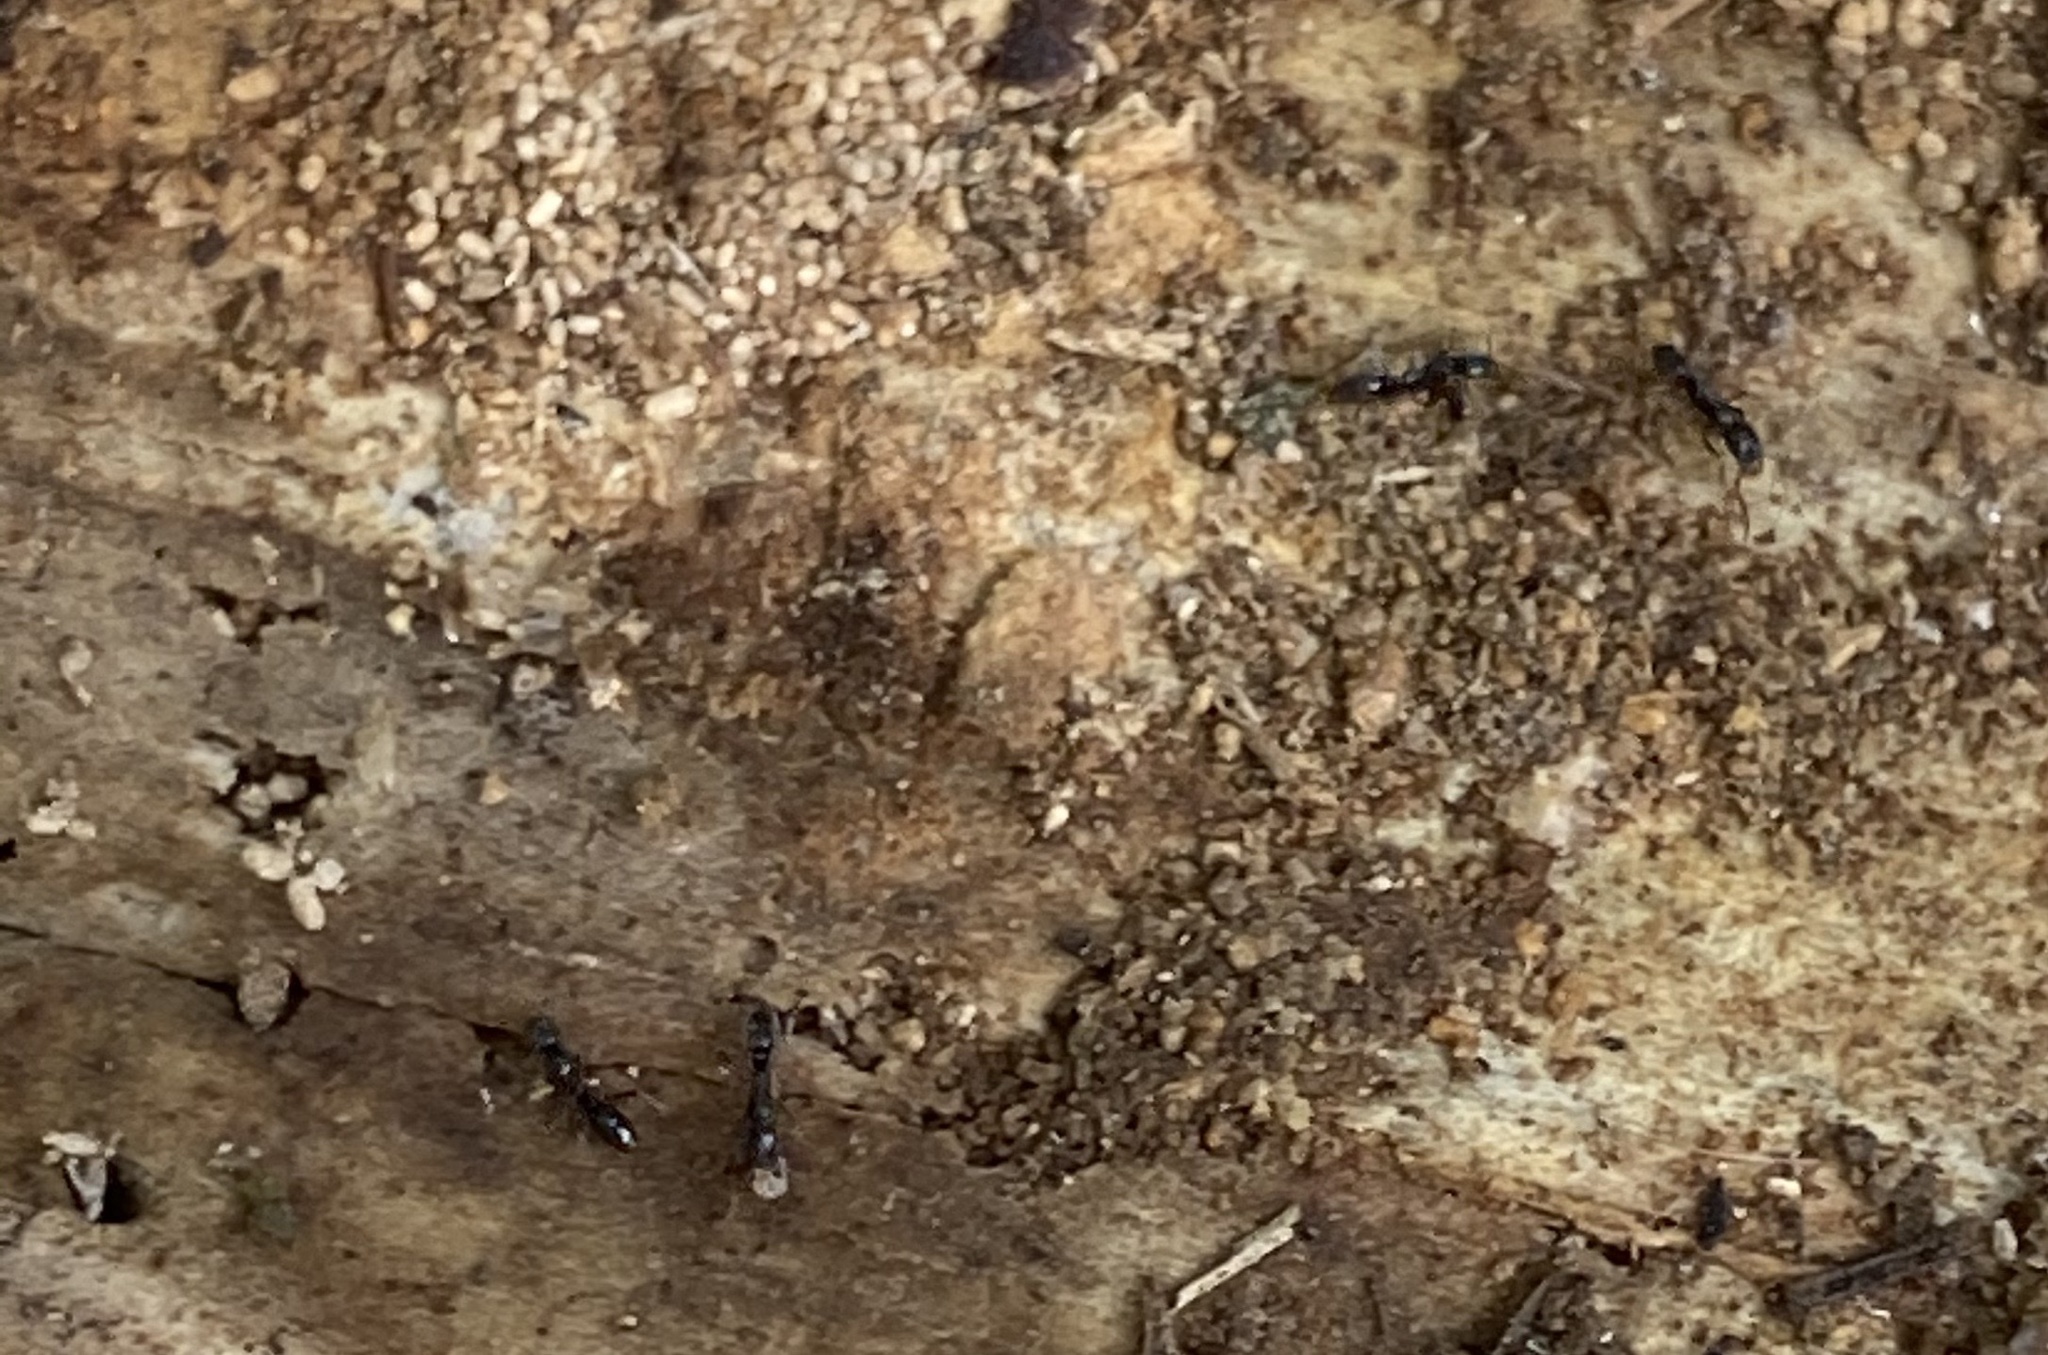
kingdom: Animalia
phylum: Arthropoda
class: Insecta
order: Hymenoptera
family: Formicidae
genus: Pachycondyla
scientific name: Pachycondyla chinensis
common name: Asian needle ant
